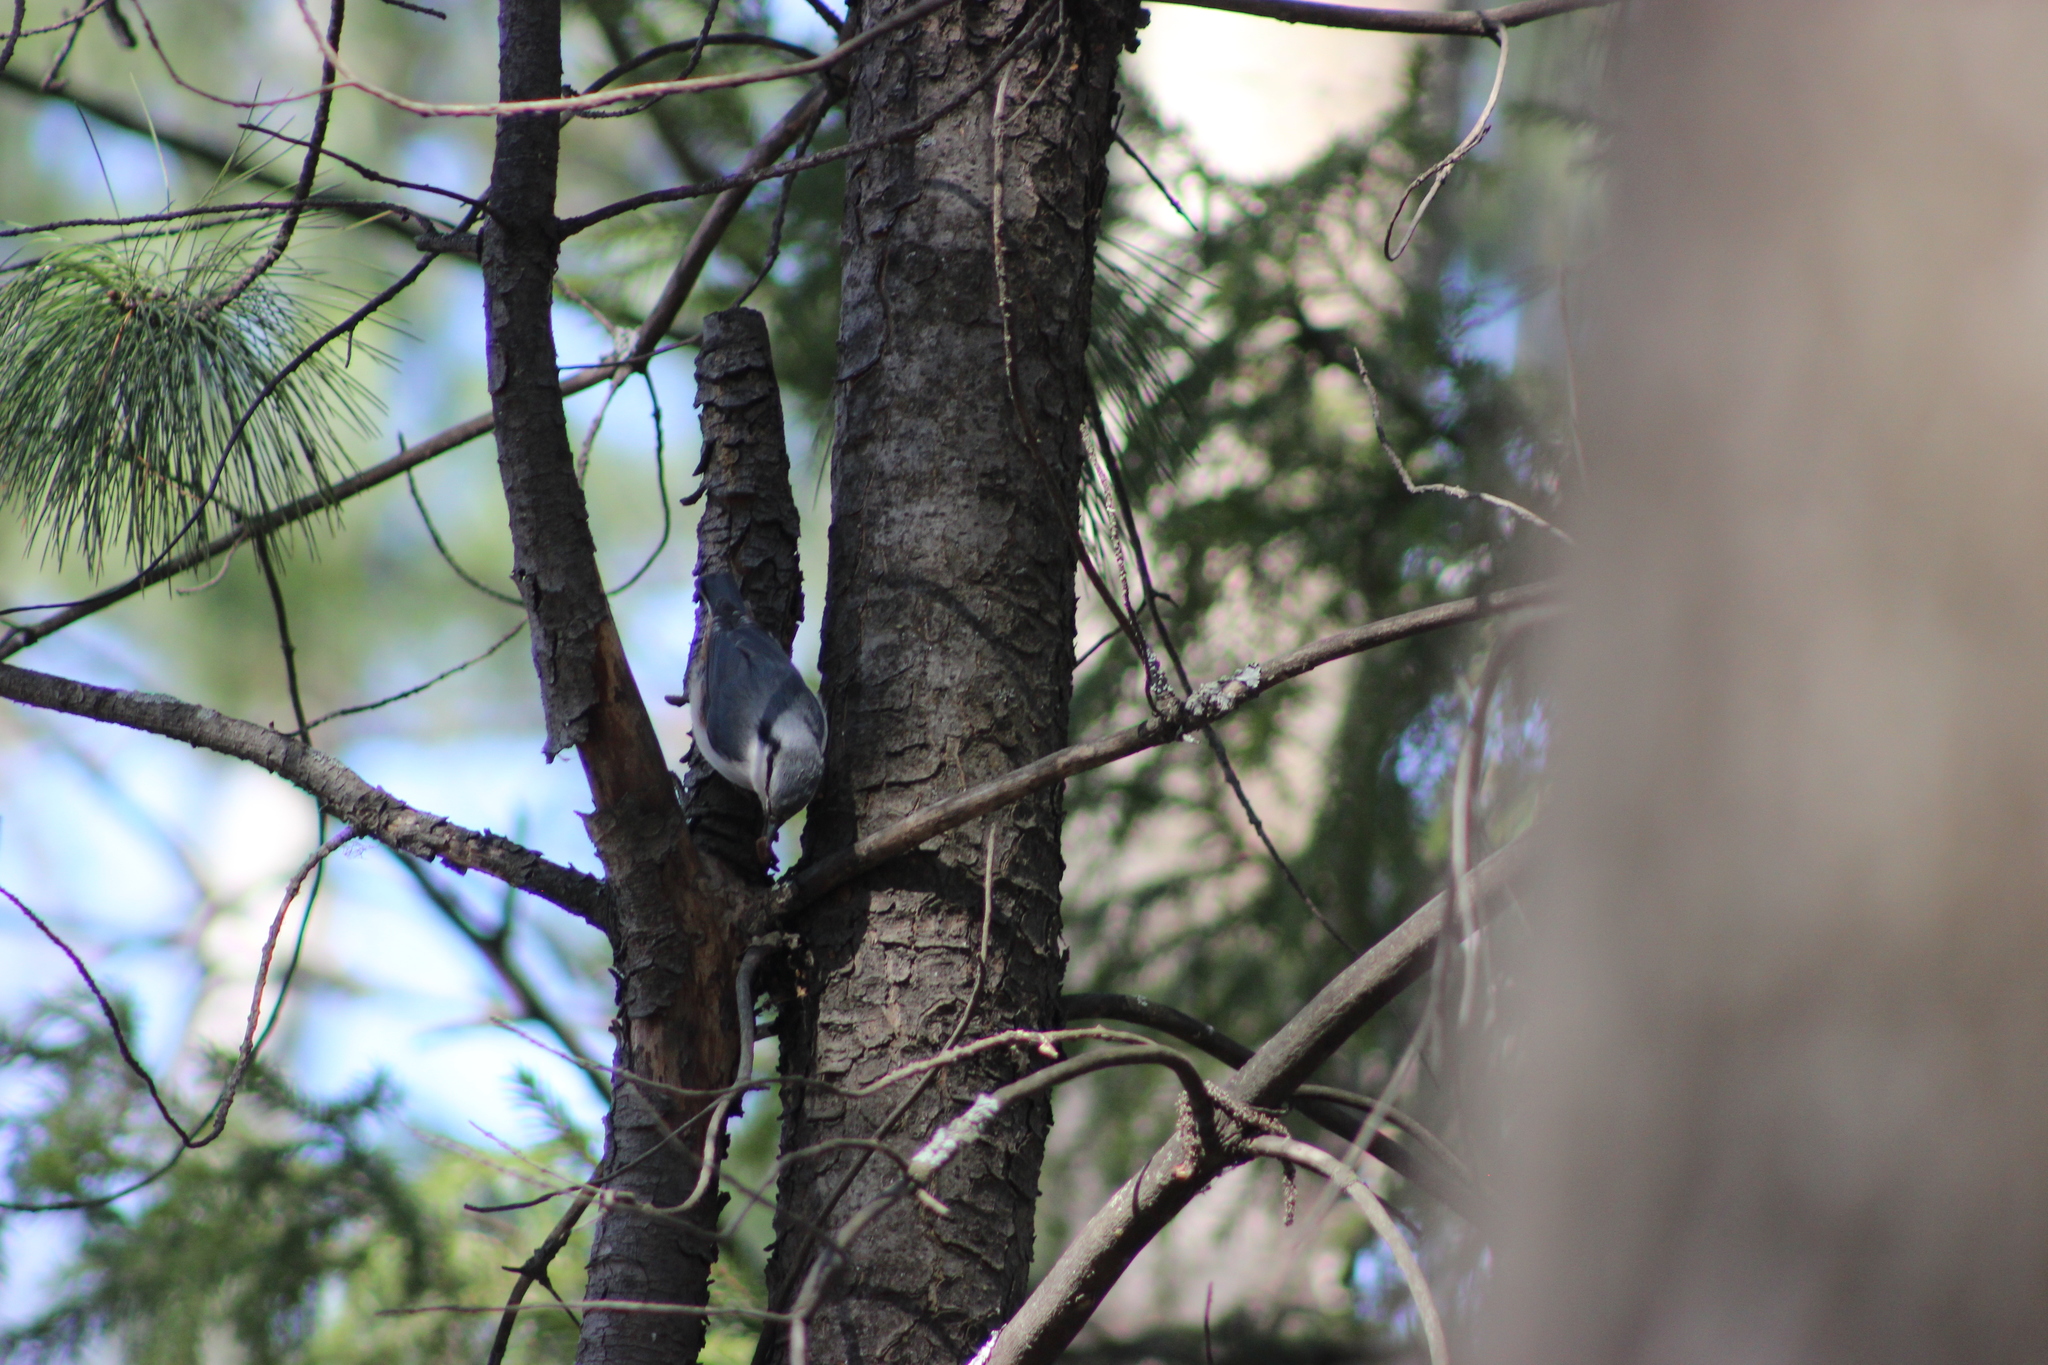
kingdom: Animalia
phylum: Chordata
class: Aves
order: Passeriformes
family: Sittidae
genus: Sitta
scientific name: Sitta europaea
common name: Eurasian nuthatch
